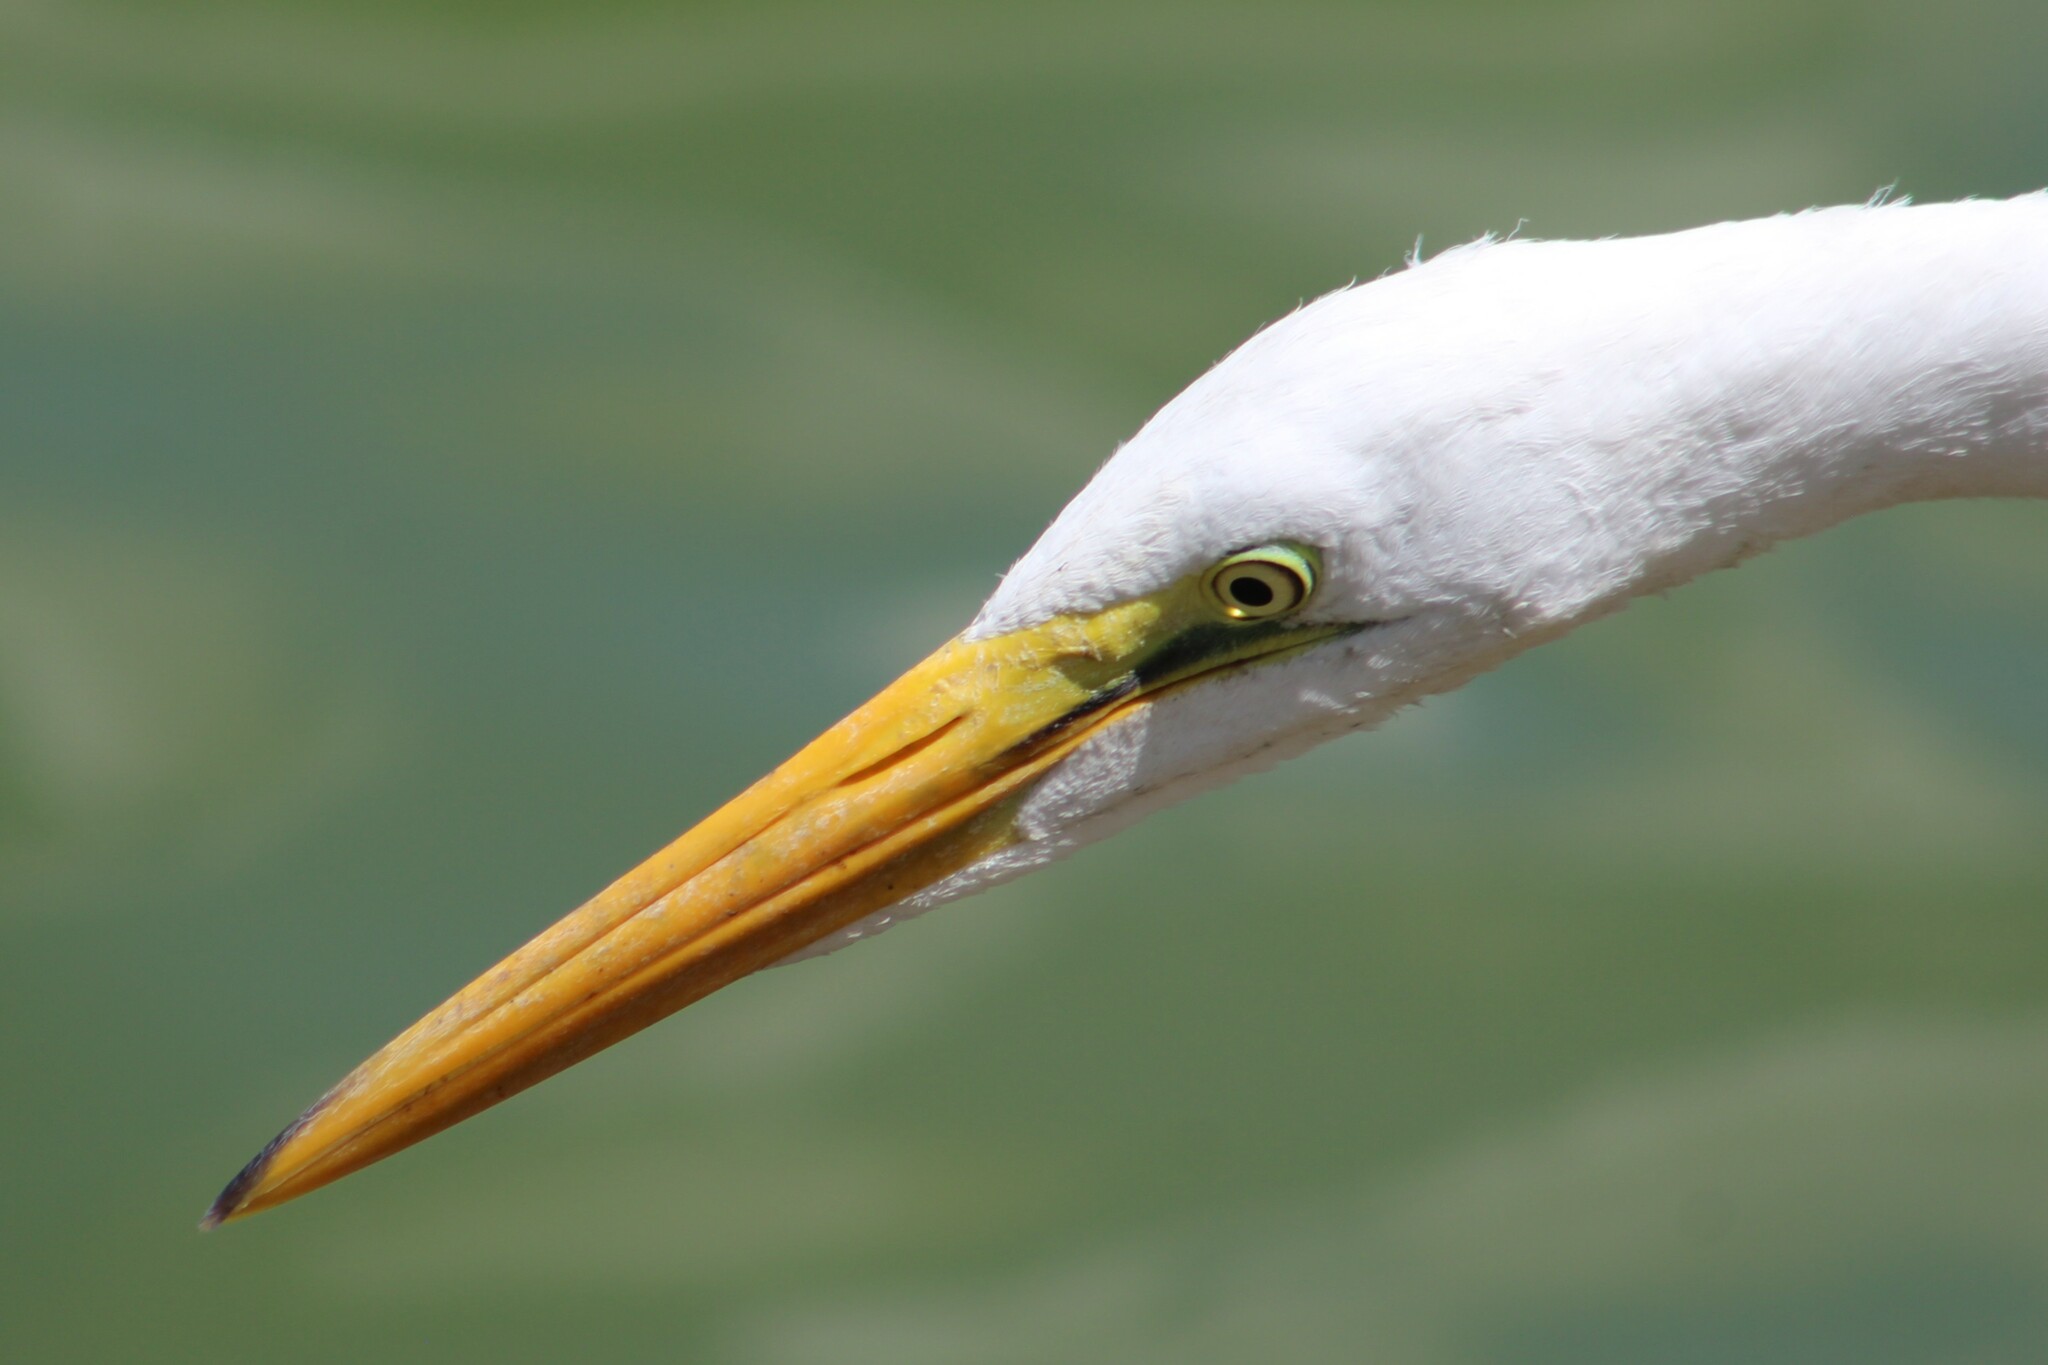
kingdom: Animalia
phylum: Chordata
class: Aves
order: Pelecaniformes
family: Ardeidae
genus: Ardea
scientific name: Ardea alba
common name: Great egret
